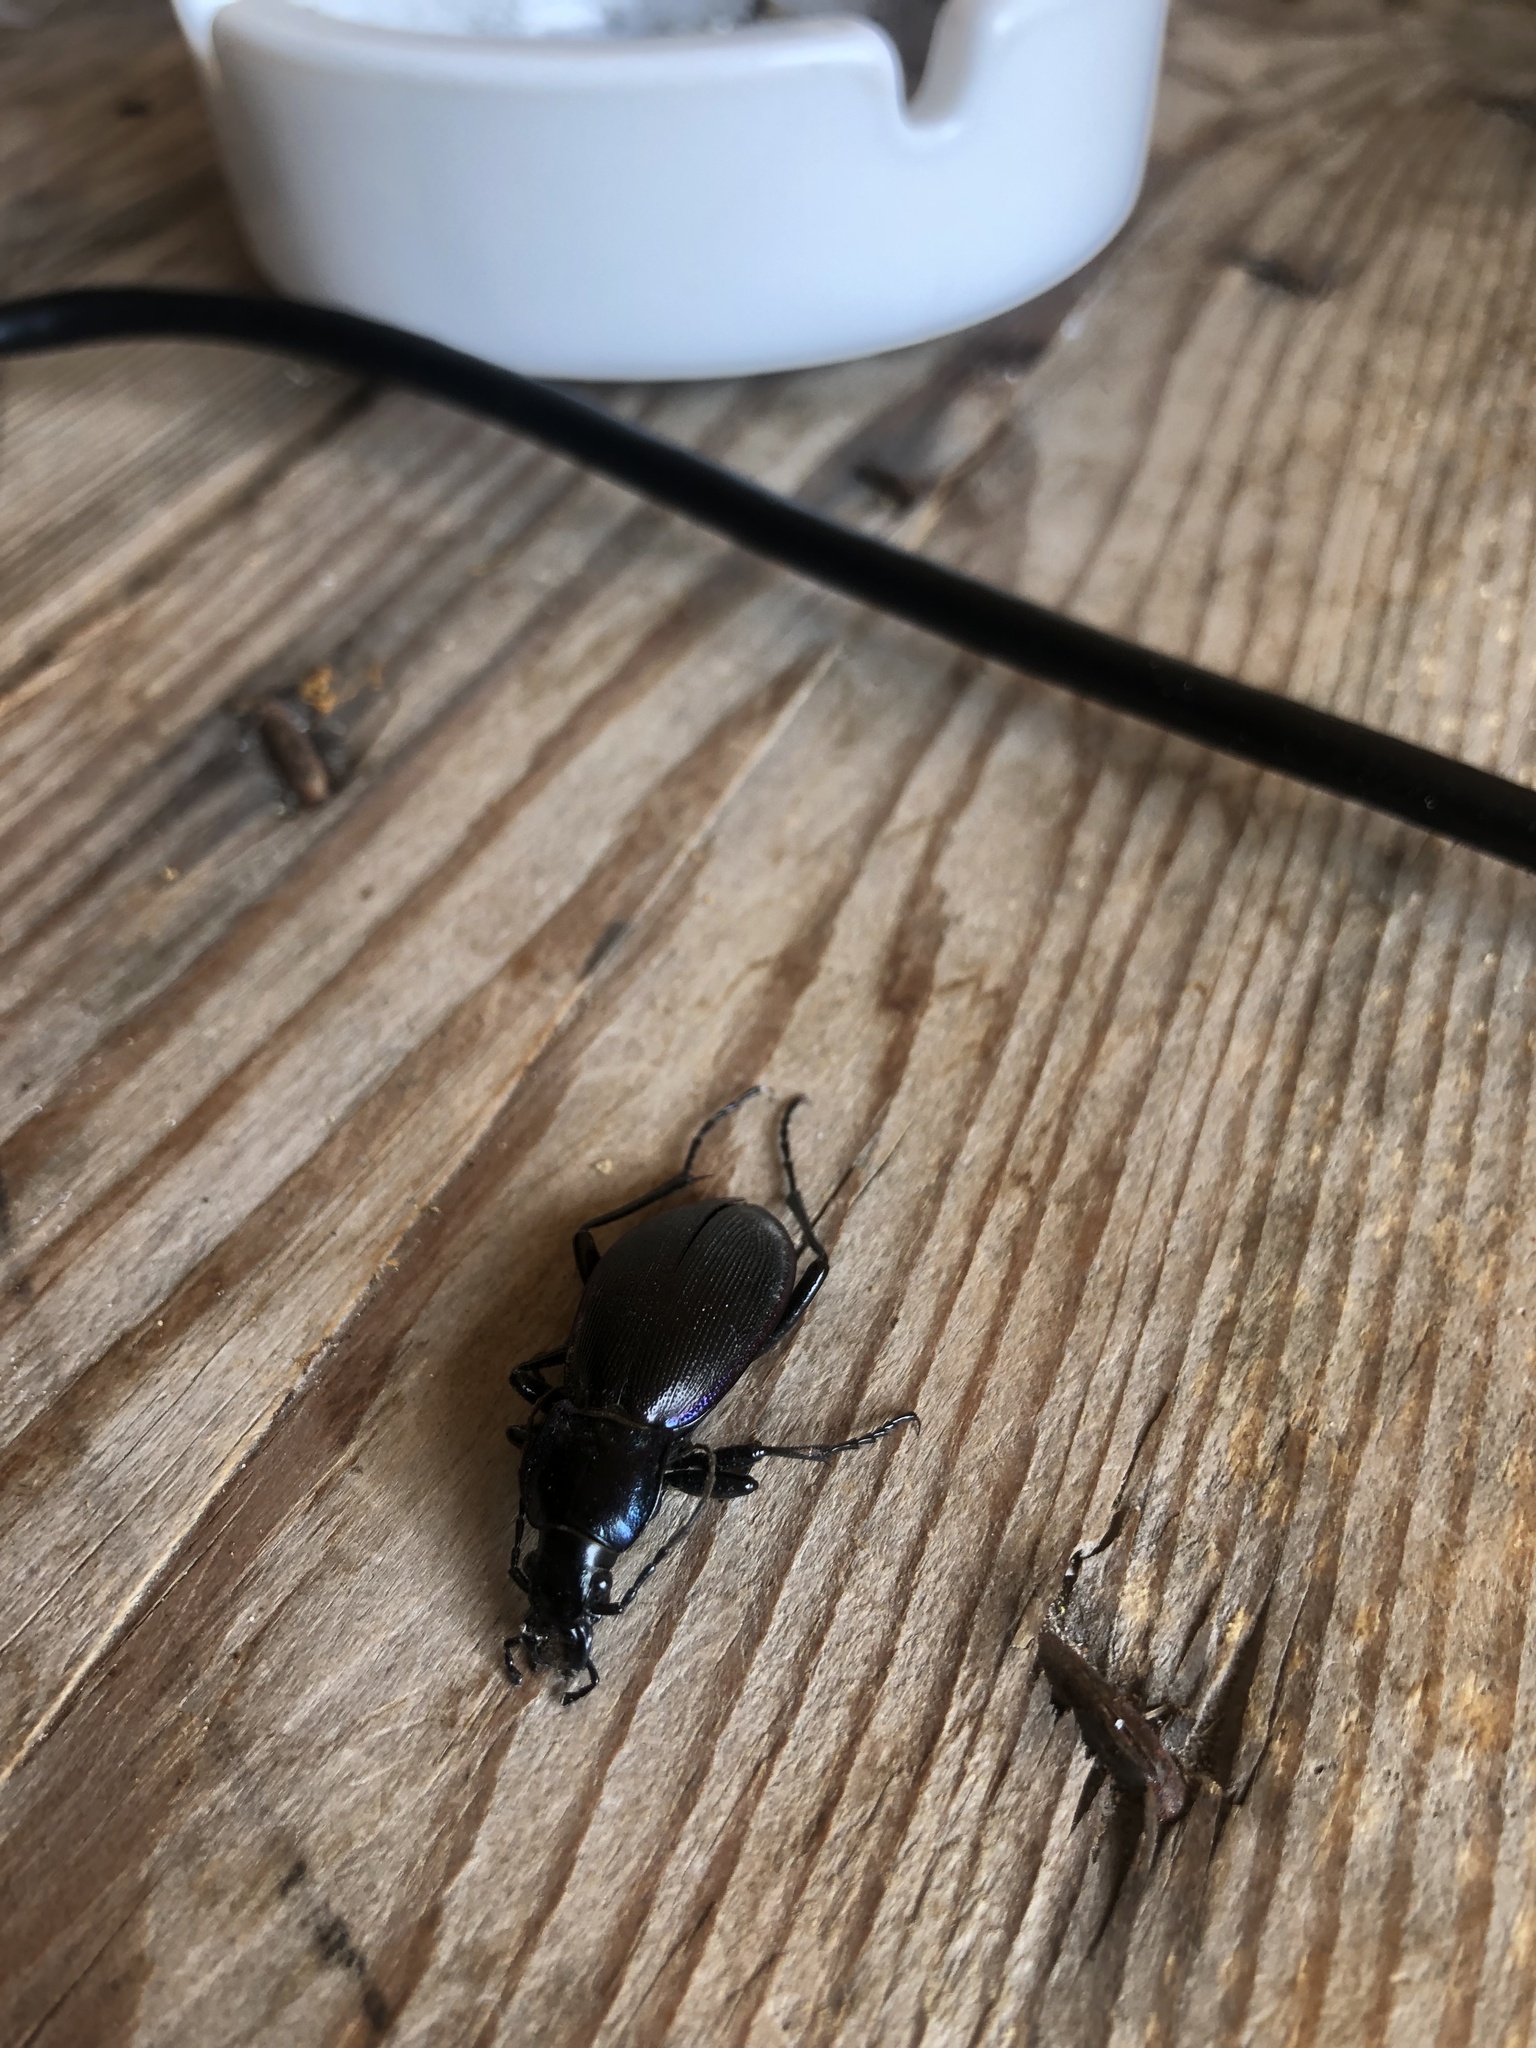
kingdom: Animalia
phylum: Arthropoda
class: Insecta
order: Coleoptera
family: Carabidae
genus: Carabus
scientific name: Carabus purpurascens
